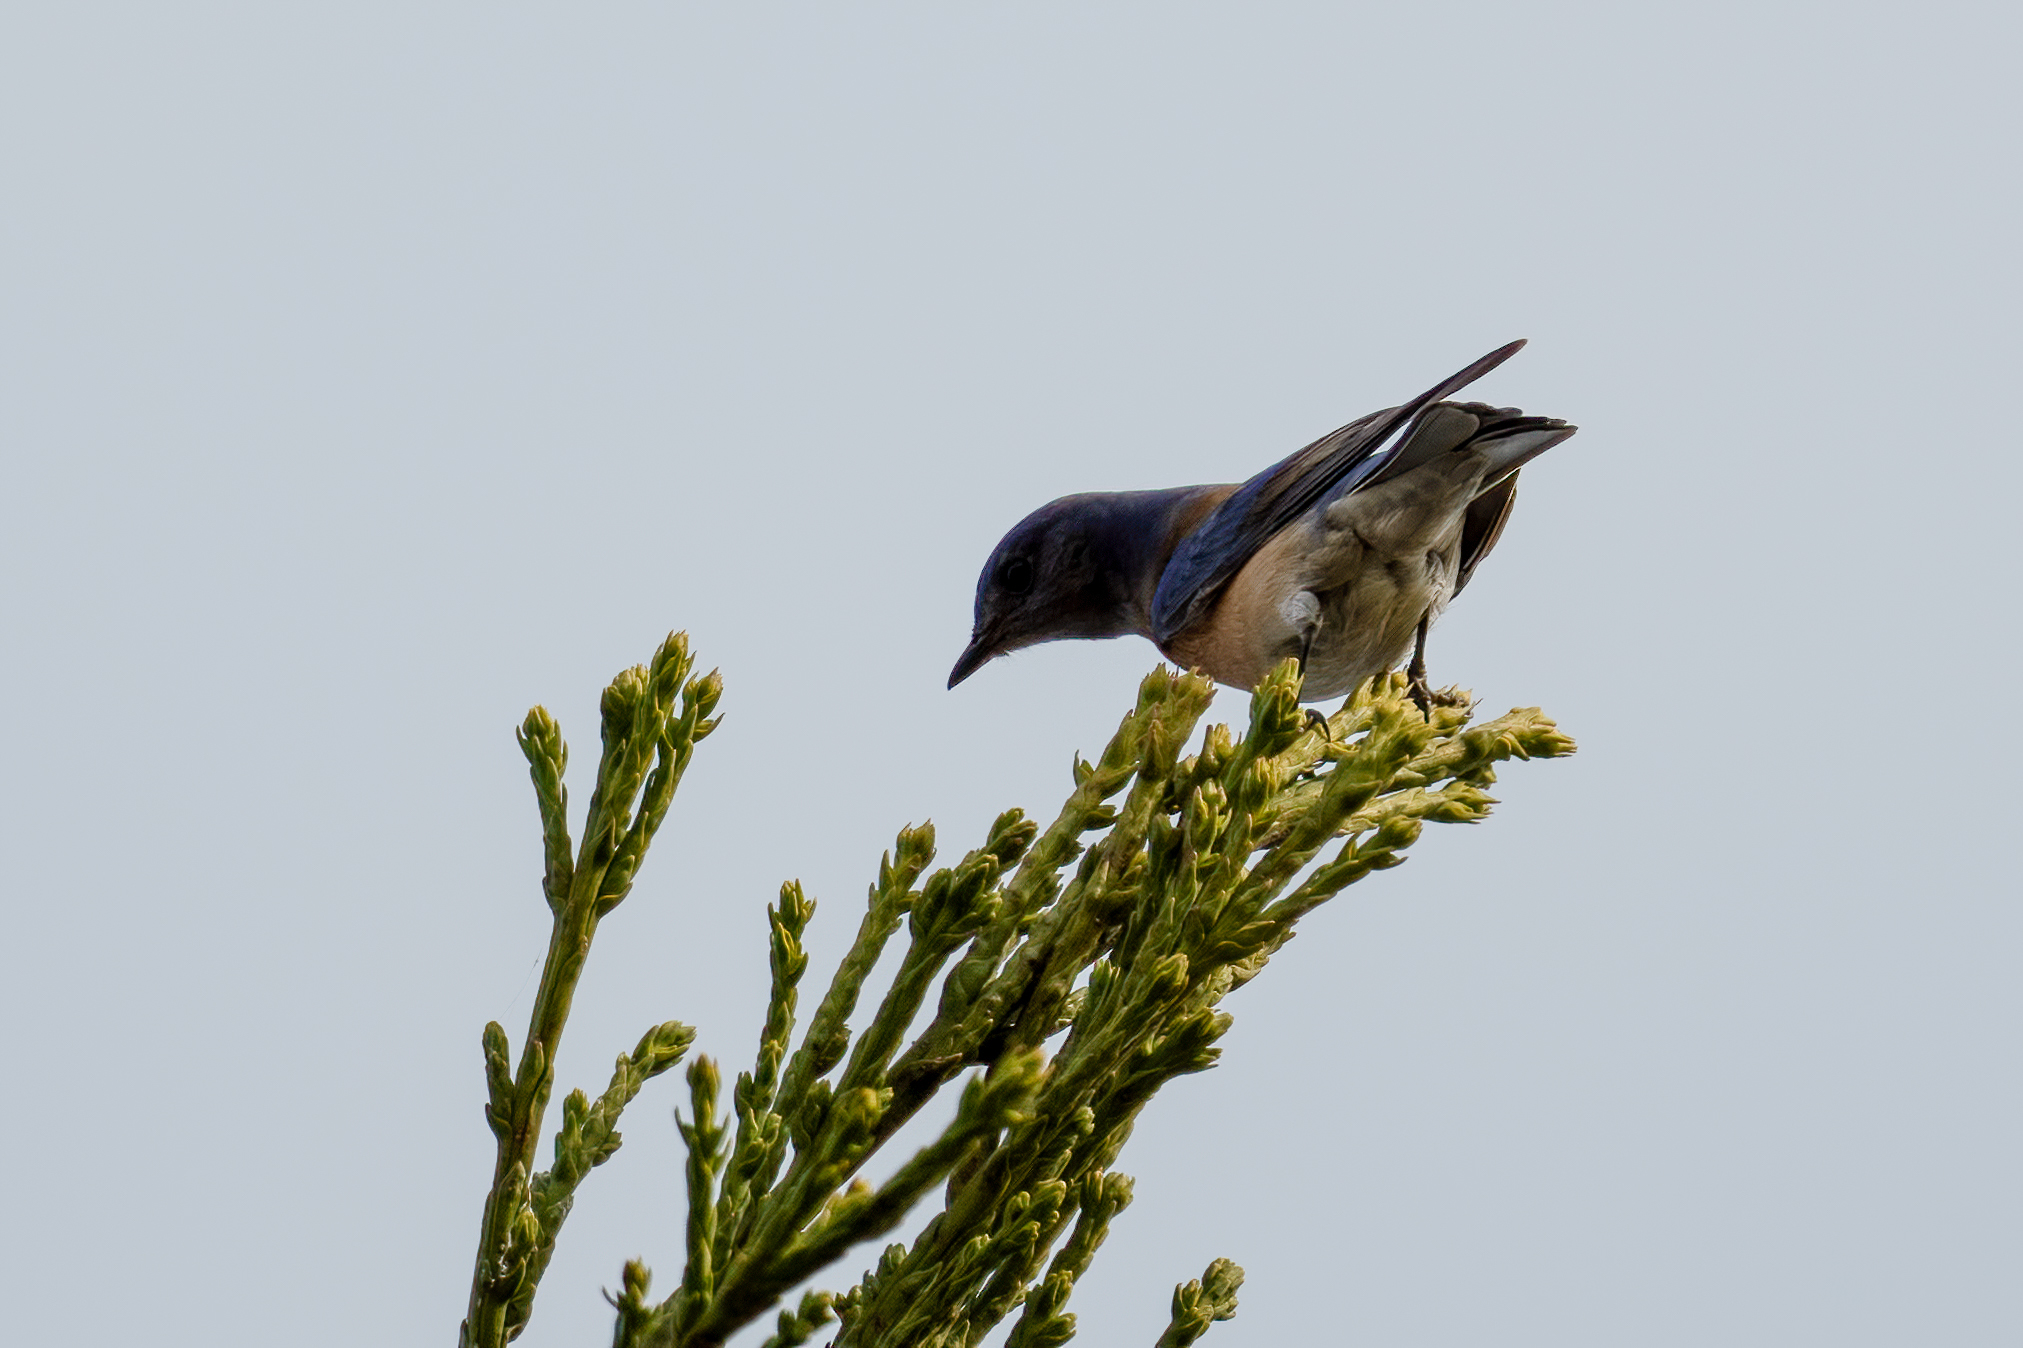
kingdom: Animalia
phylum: Chordata
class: Aves
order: Passeriformes
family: Turdidae
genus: Sialia
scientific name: Sialia mexicana
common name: Western bluebird
